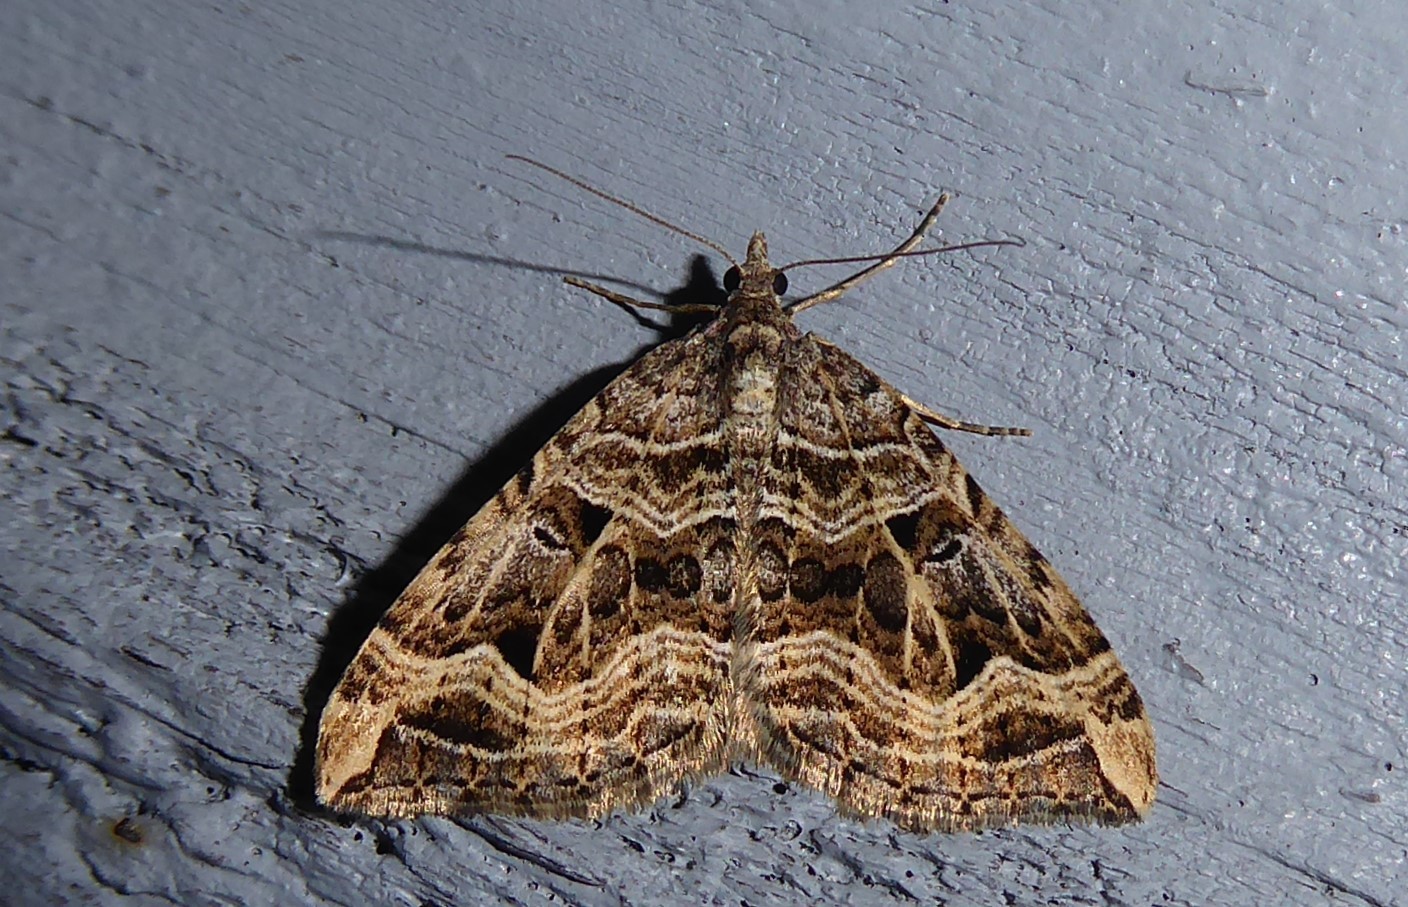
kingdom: Animalia
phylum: Arthropoda
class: Insecta
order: Lepidoptera
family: Geometridae
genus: Xanthorhoe
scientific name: Xanthorhoe semifissata
